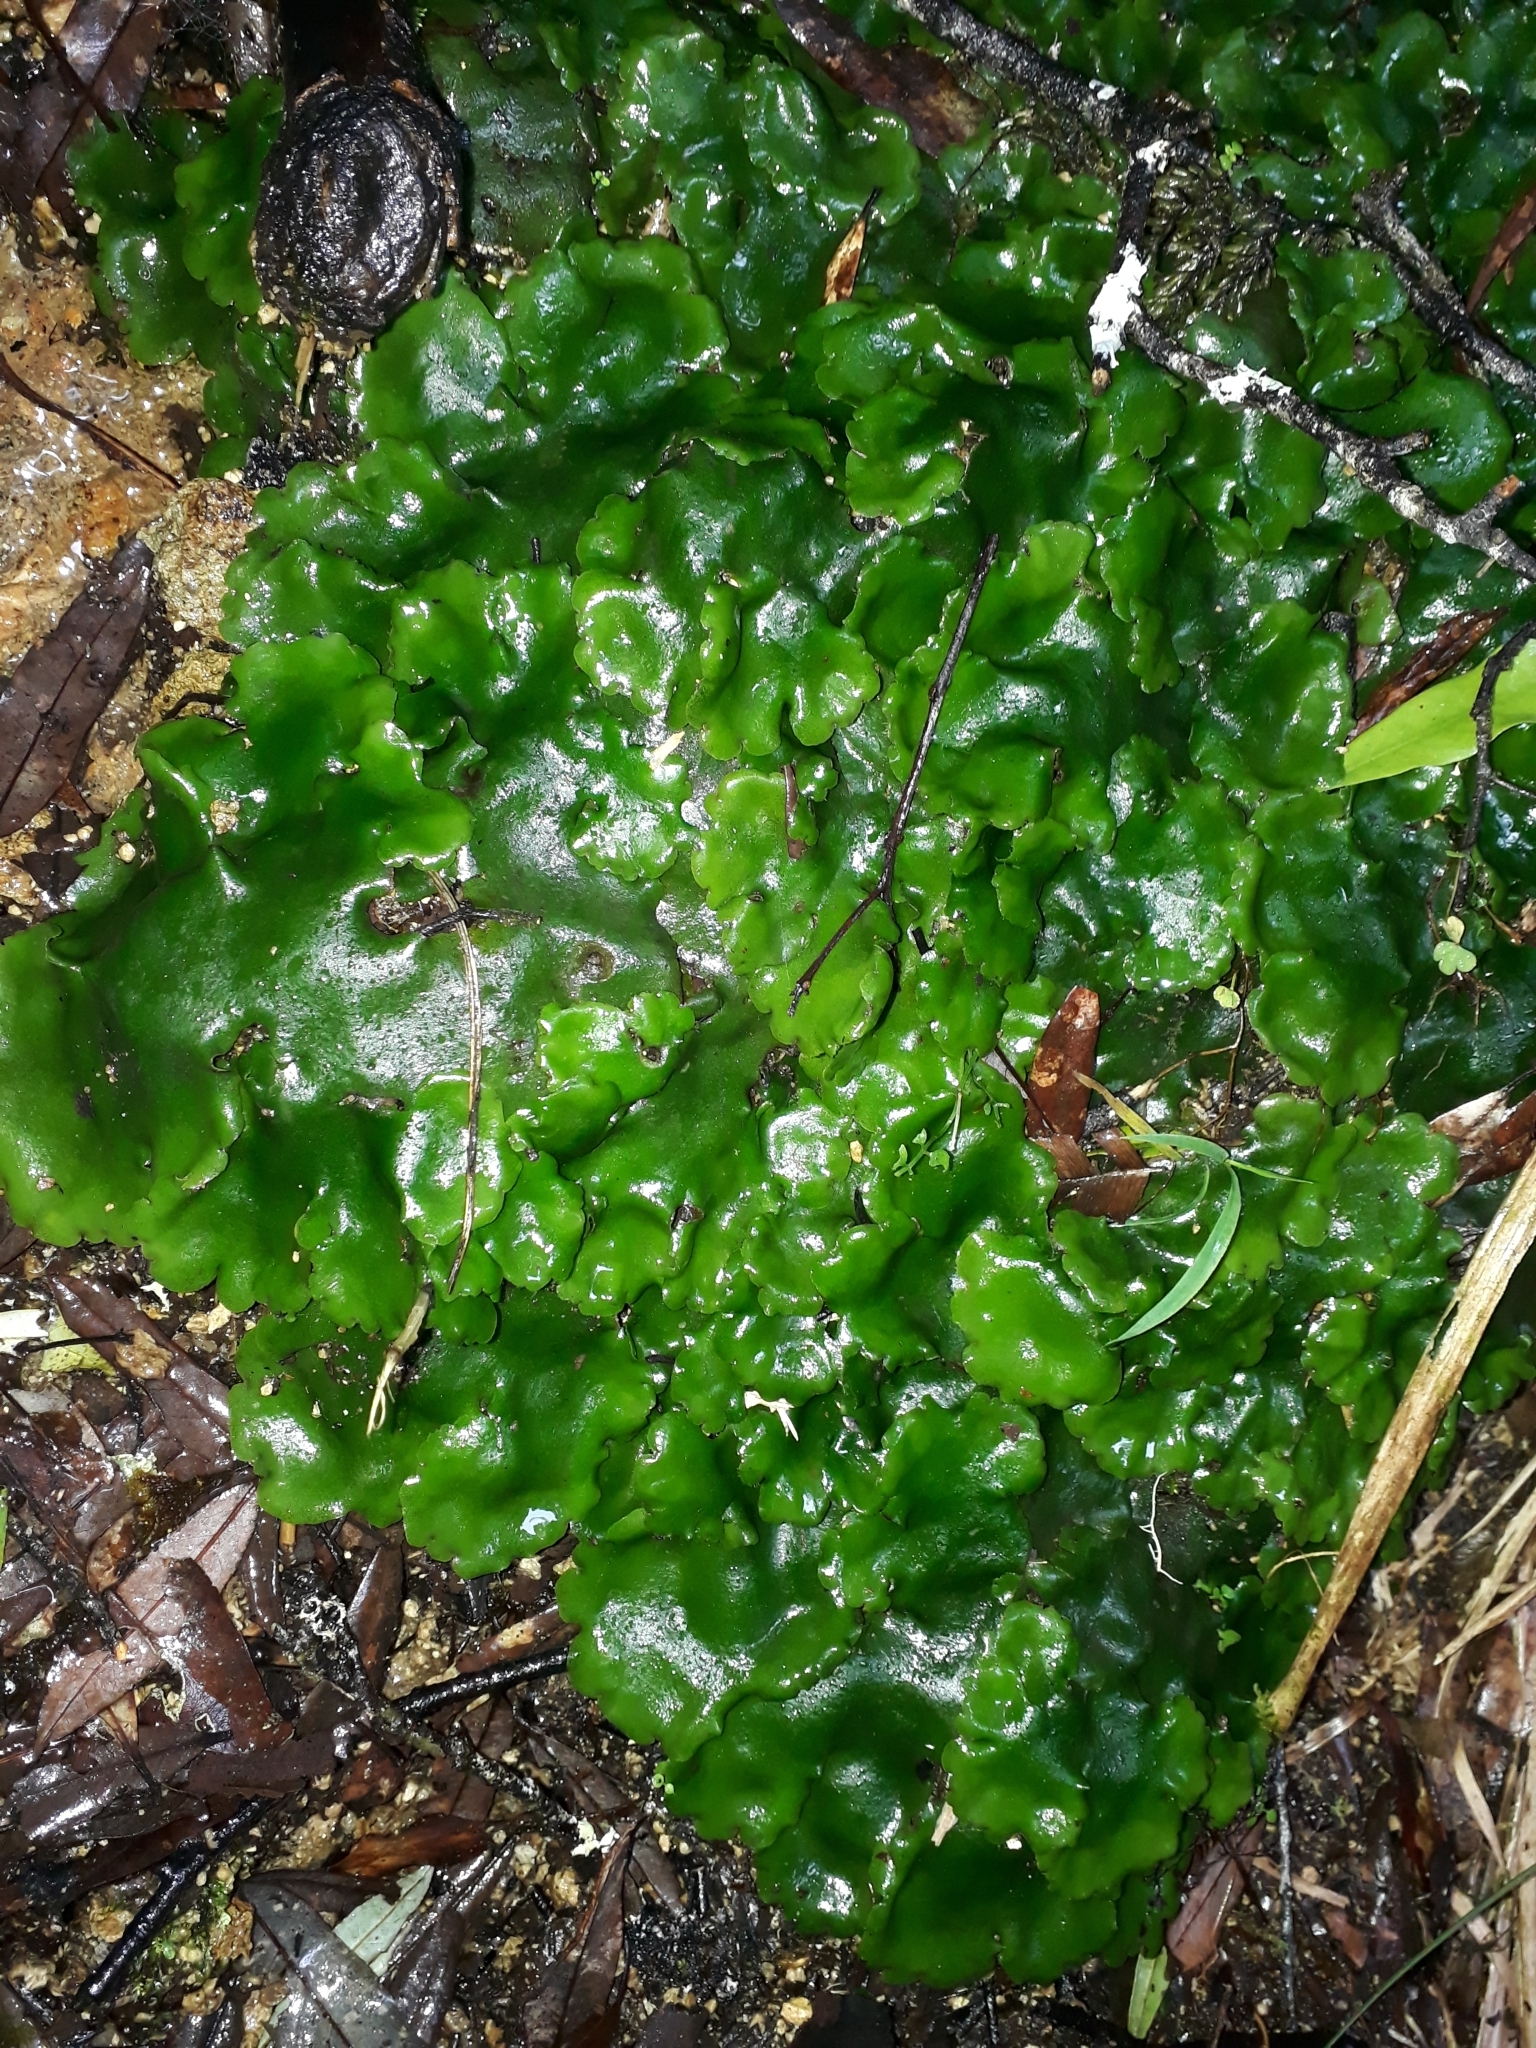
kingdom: Plantae
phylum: Marchantiophyta
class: Marchantiopsida
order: Marchantiales
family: Monocleaceae
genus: Monoclea
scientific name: Monoclea forsteri
